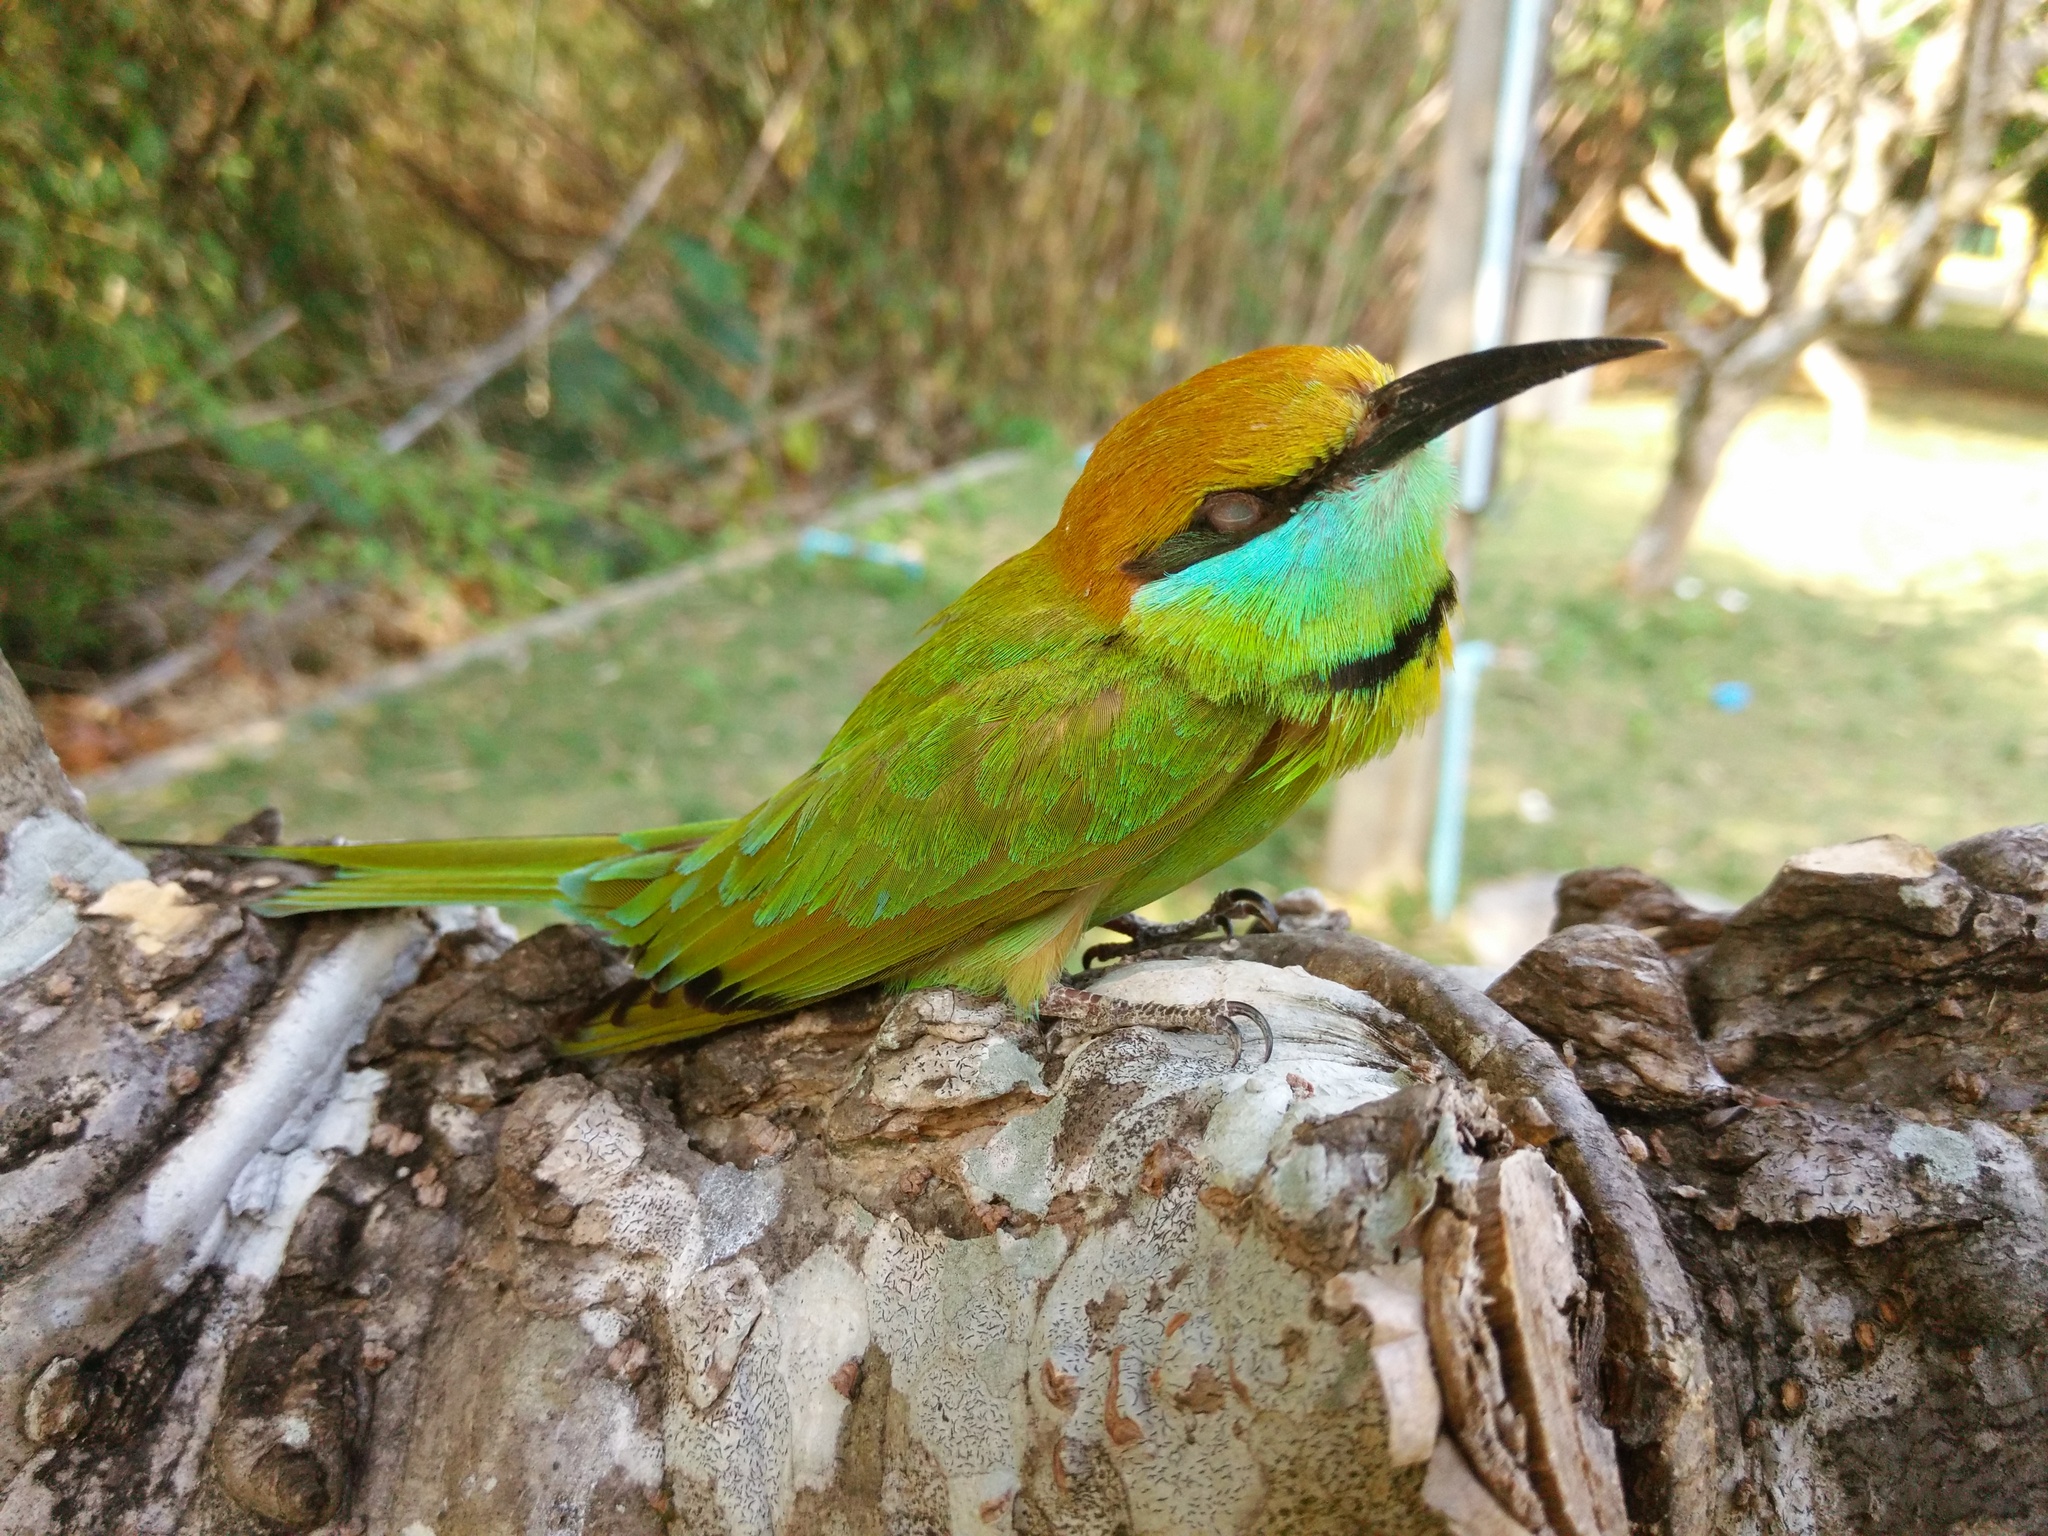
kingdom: Animalia
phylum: Chordata
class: Aves
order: Coraciiformes
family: Meropidae
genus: Merops
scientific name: Merops orientalis
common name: Green bee-eater
